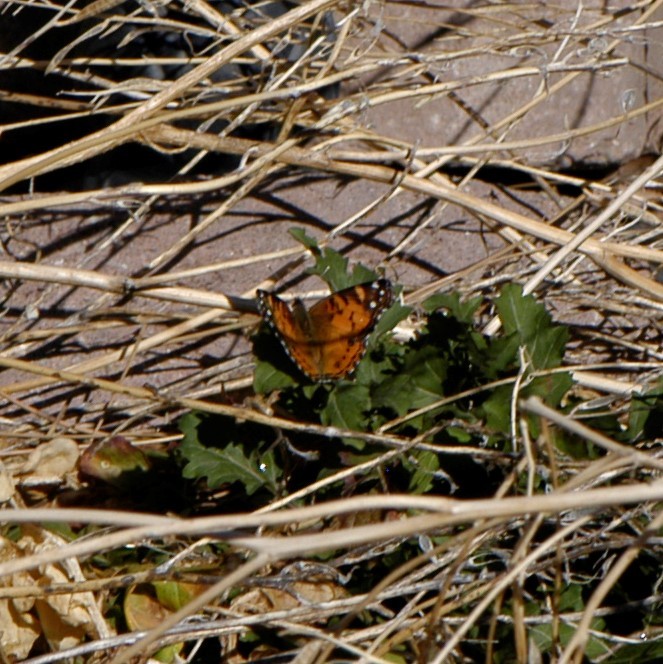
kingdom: Animalia
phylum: Arthropoda
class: Insecta
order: Lepidoptera
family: Nymphalidae
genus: Vanessa
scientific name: Vanessa virginiensis
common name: American lady
